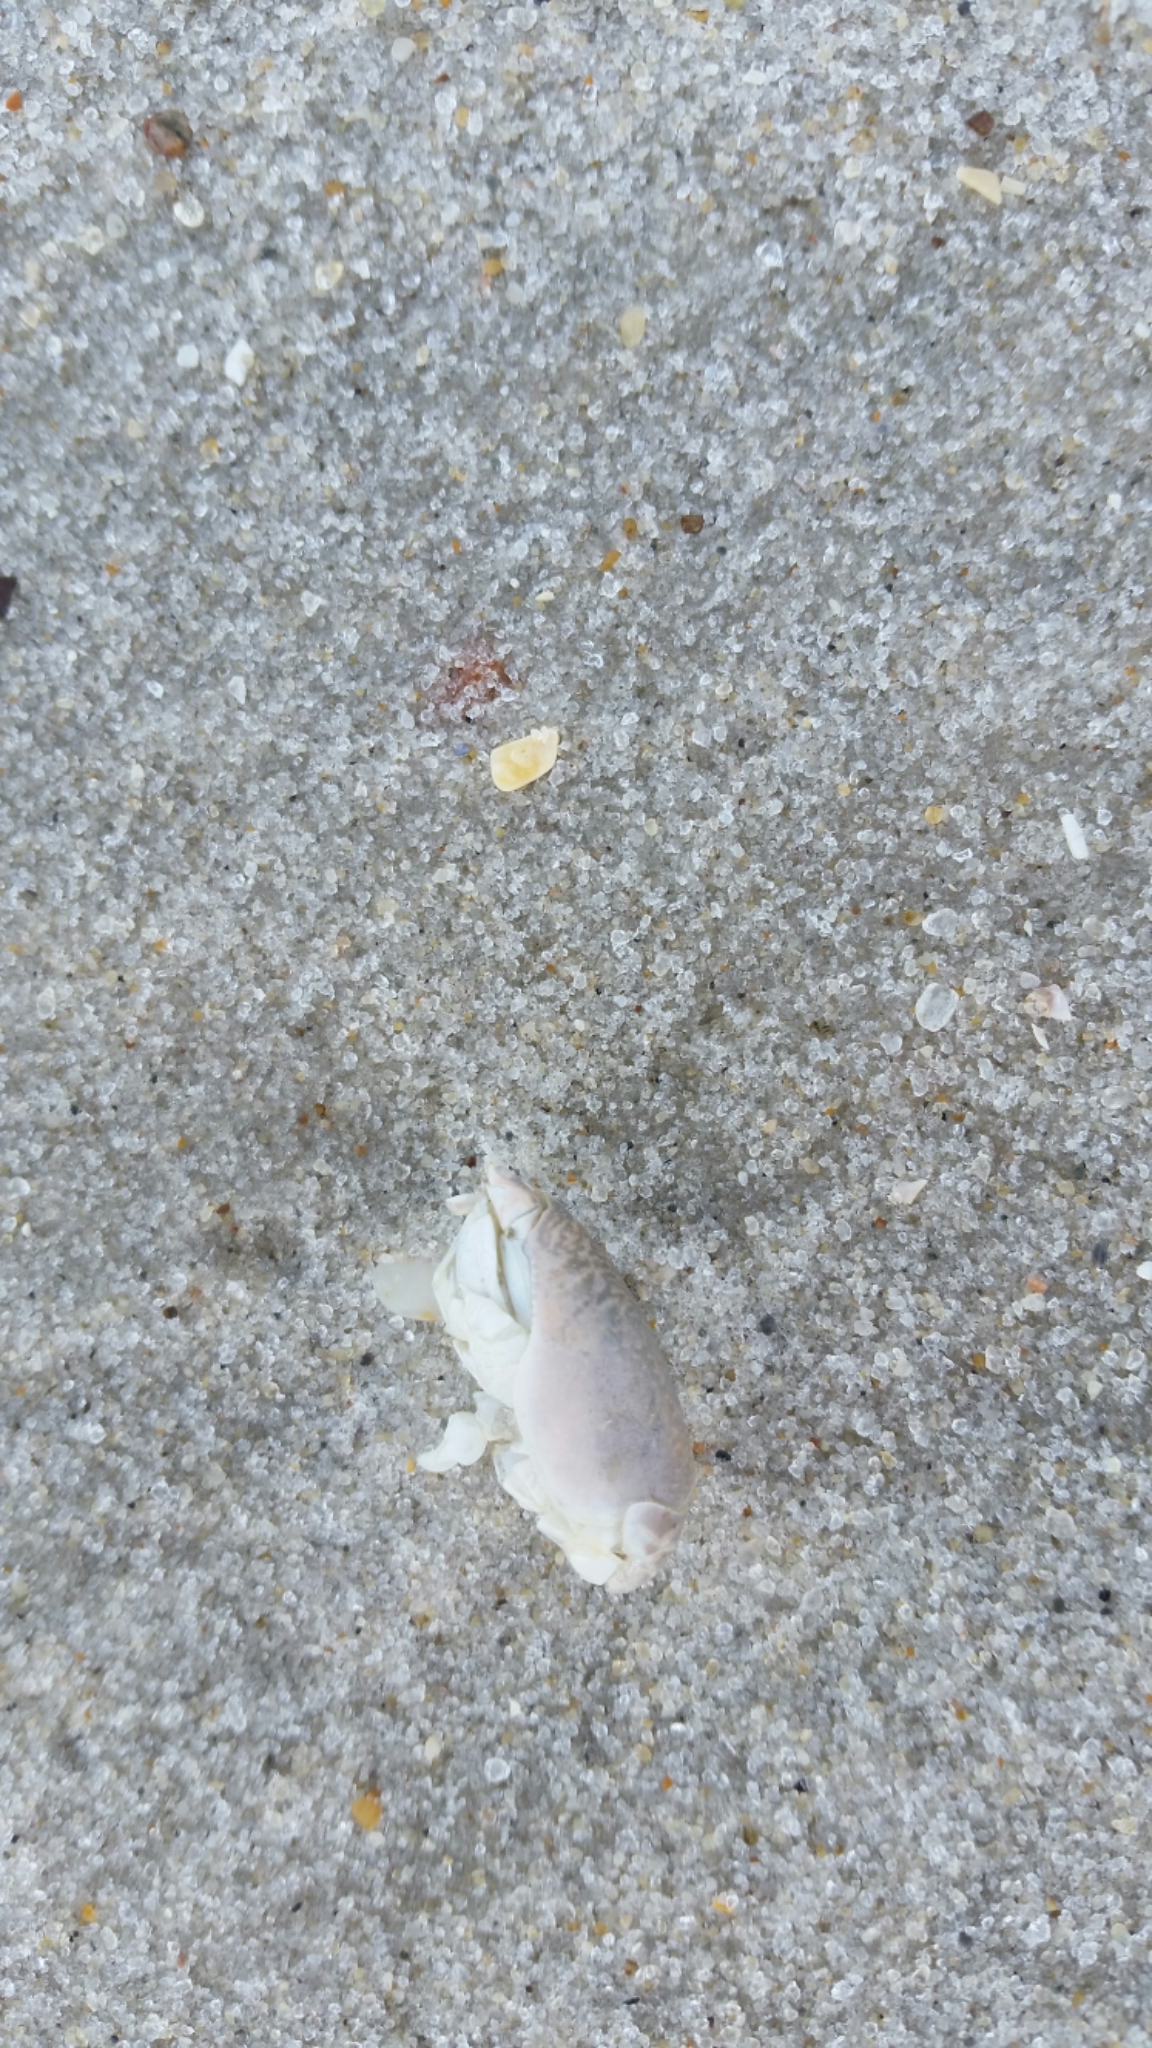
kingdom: Animalia
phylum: Arthropoda
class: Malacostraca
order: Decapoda
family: Hippidae
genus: Emerita
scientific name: Emerita talpoida
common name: Atlantic sand crab
